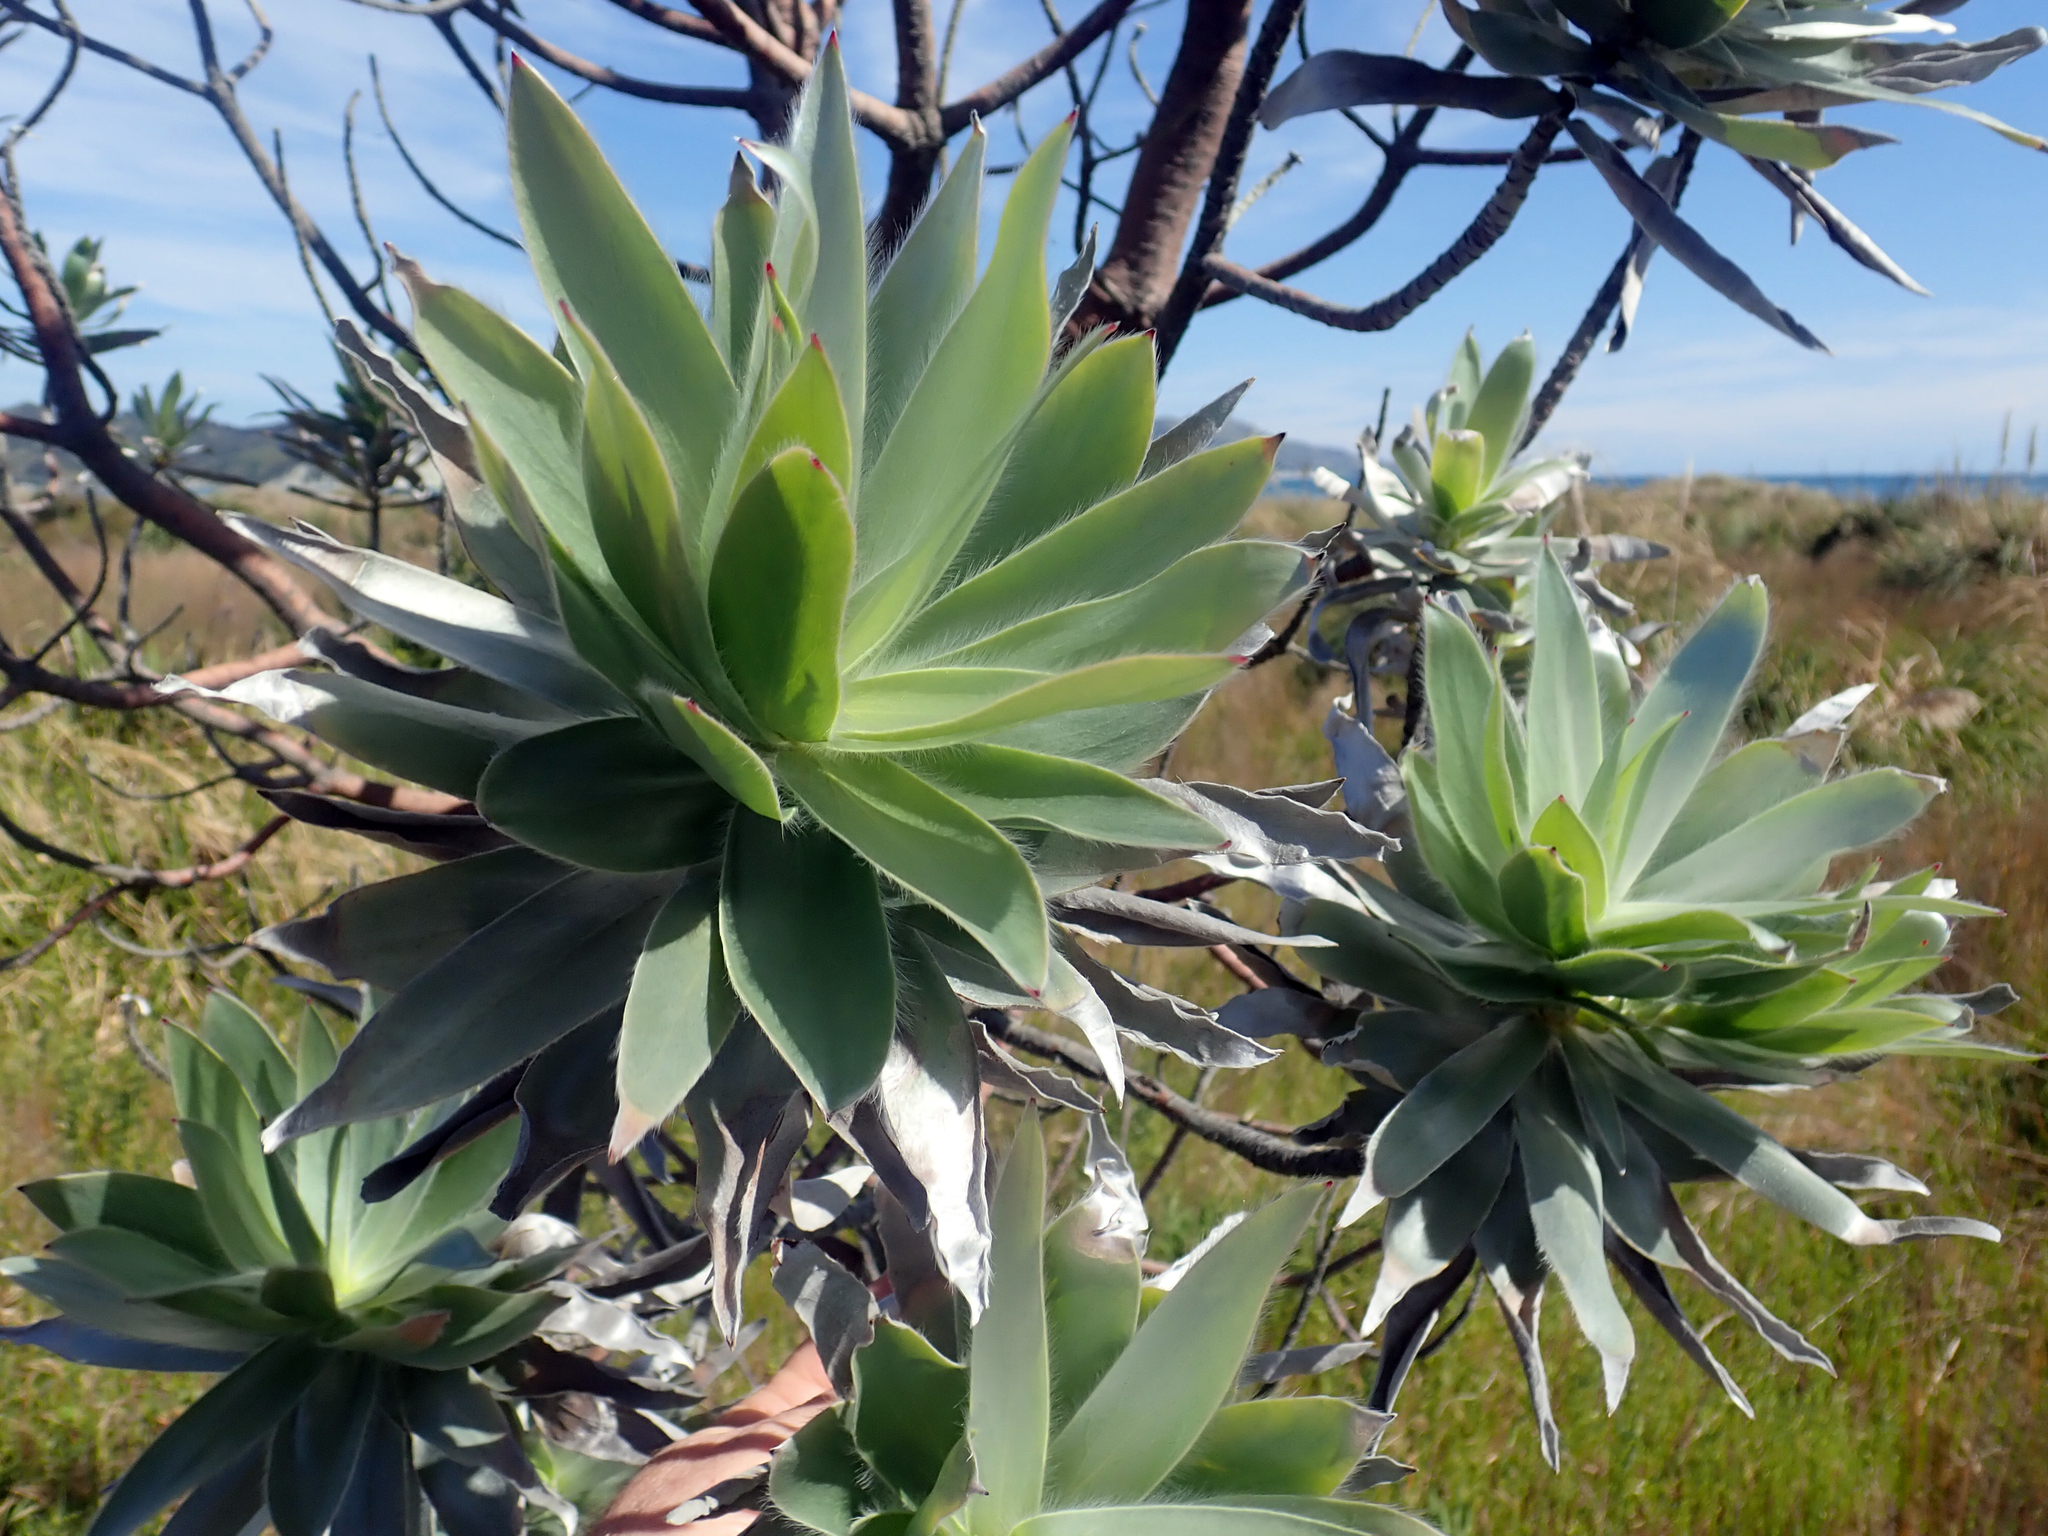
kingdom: Plantae
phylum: Tracheophyta
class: Magnoliopsida
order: Proteales
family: Proteaceae
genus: Leucadendron
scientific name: Leucadendron argenteum
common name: Cape silver tree
